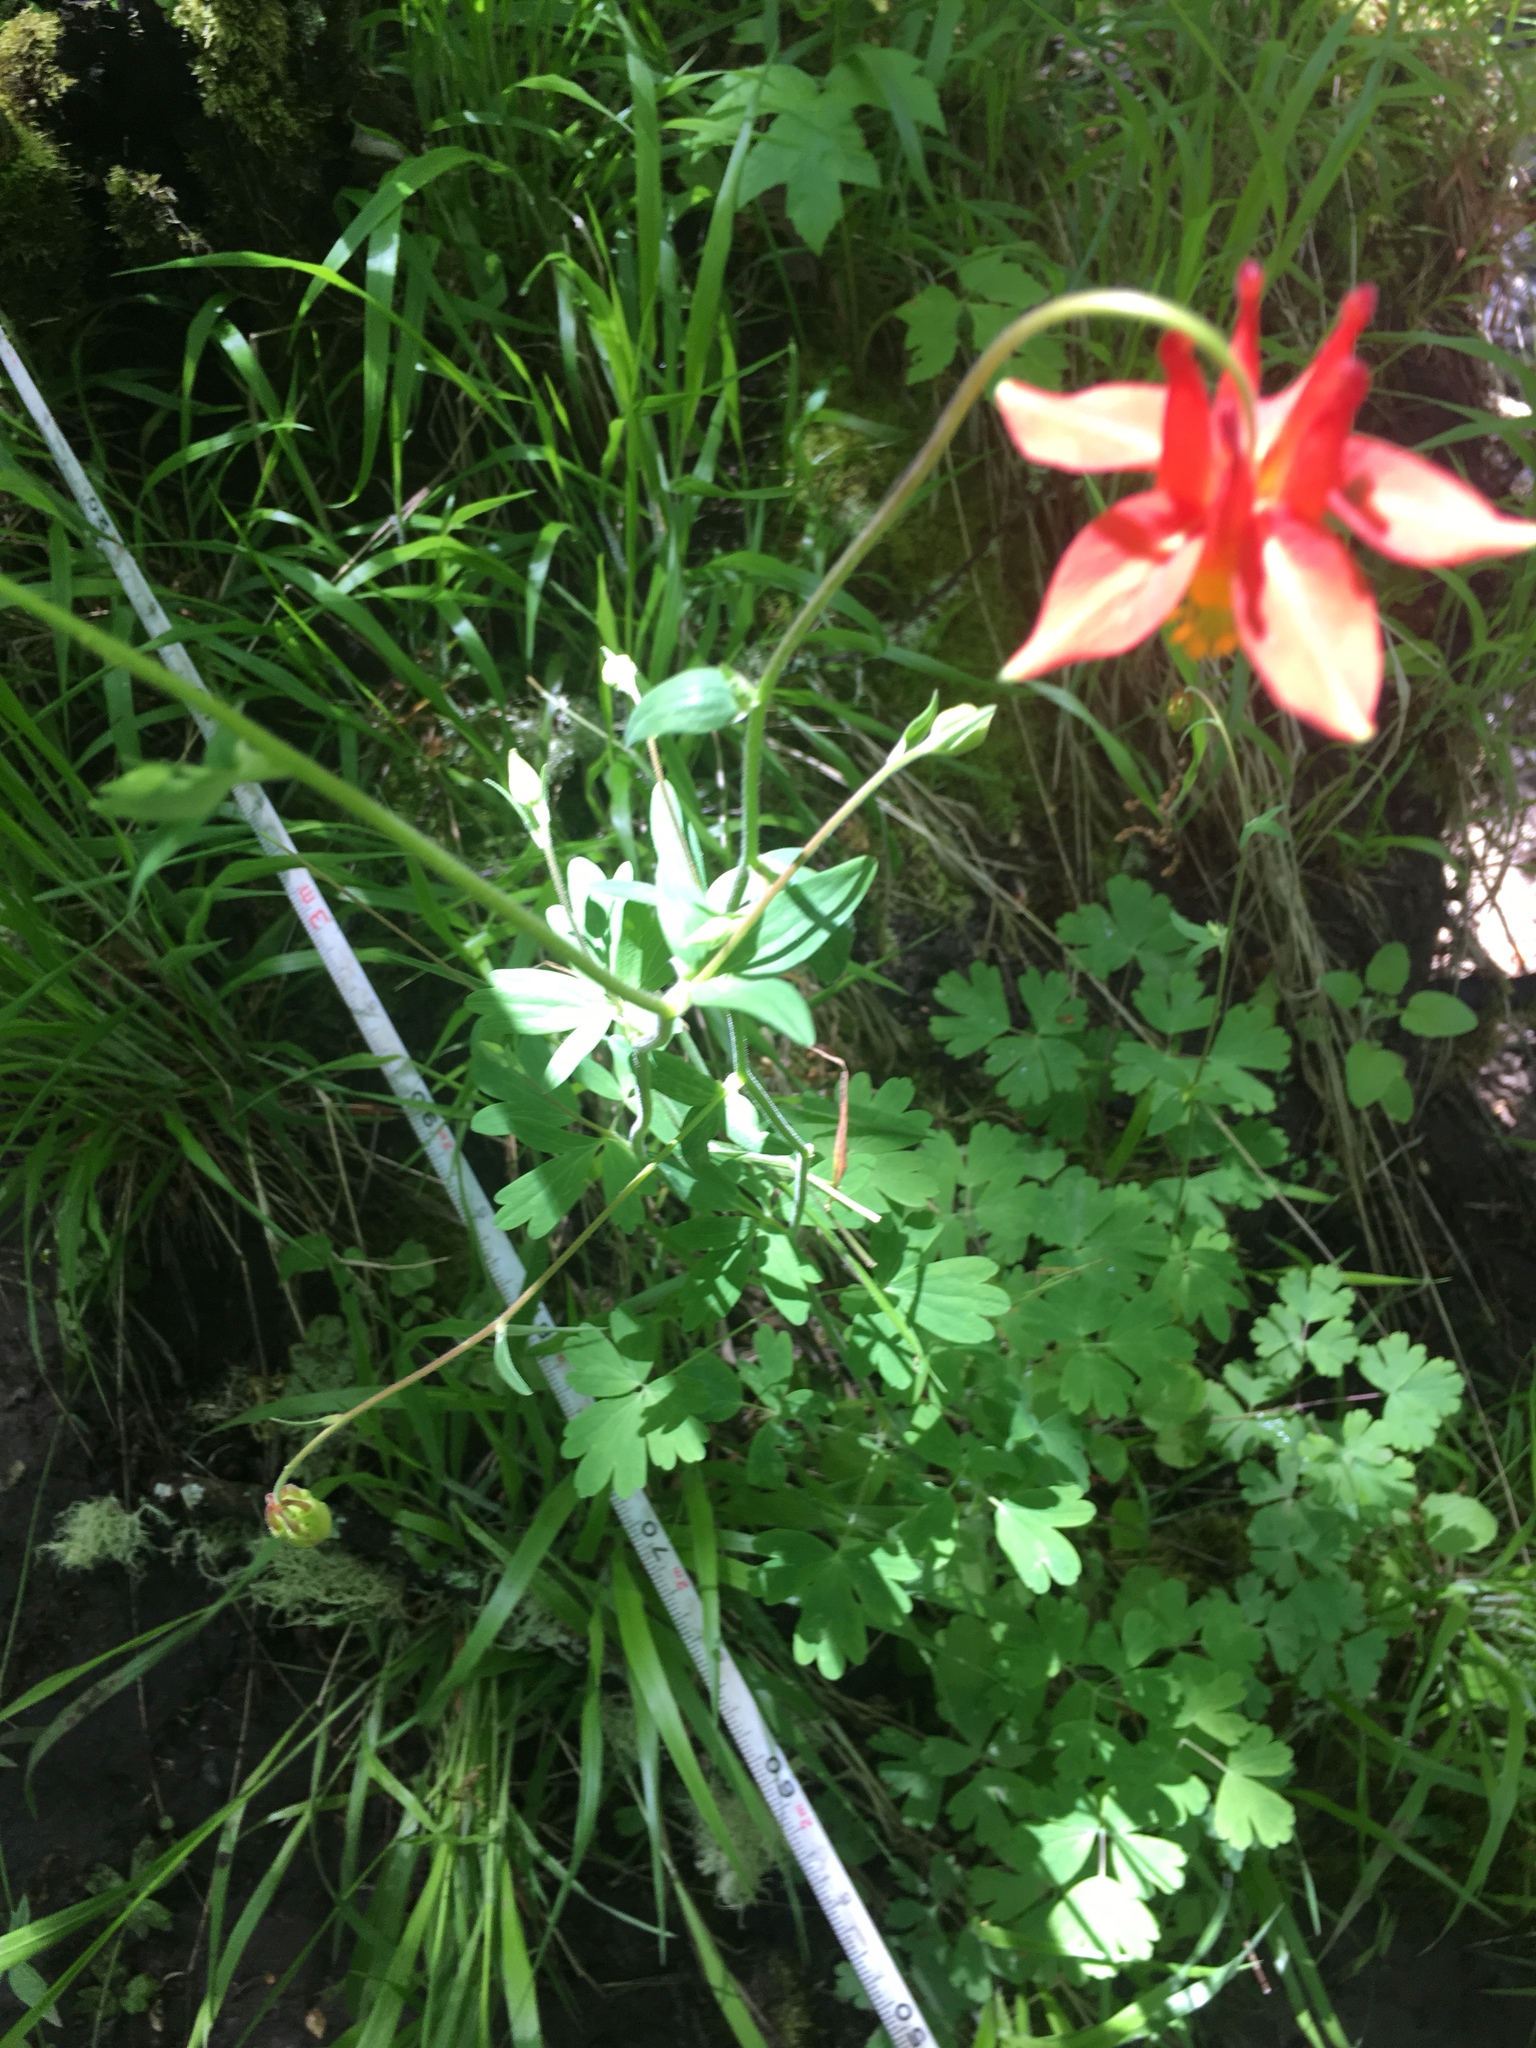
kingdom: Plantae
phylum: Tracheophyta
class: Magnoliopsida
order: Ranunculales
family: Ranunculaceae
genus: Aquilegia
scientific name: Aquilegia formosa
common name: Sitka columbine
